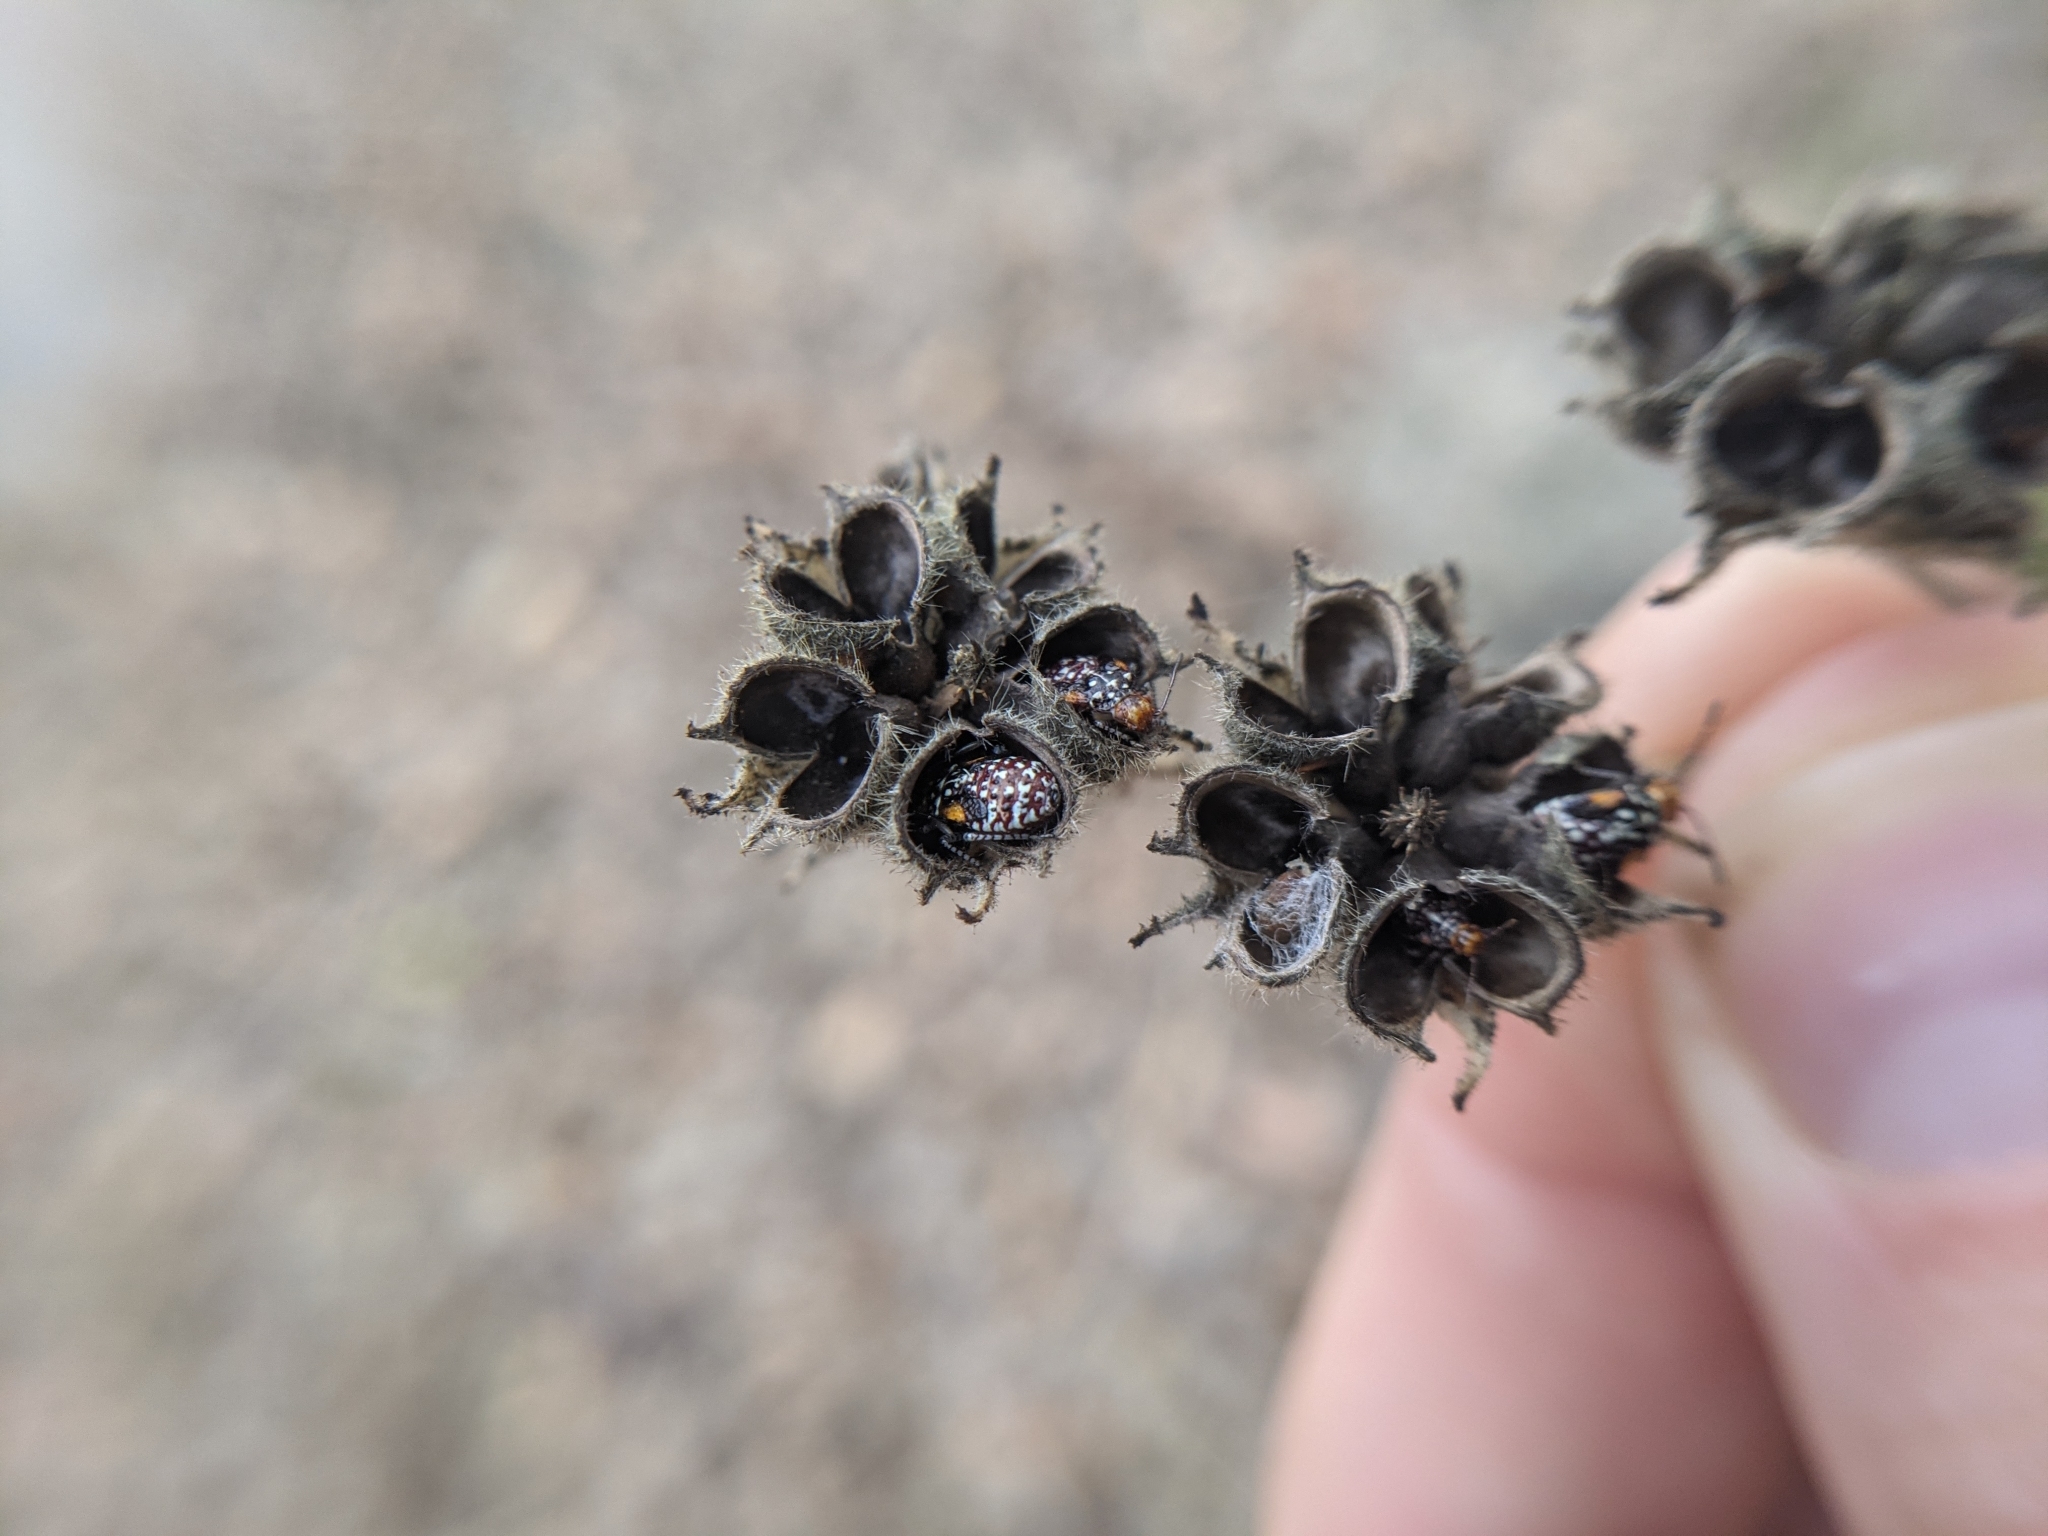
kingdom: Animalia
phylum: Arthropoda
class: Insecta
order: Hemiptera
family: Rhopalidae
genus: Niesthrea
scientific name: Niesthrea louisianica
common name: Scentless plant bug
